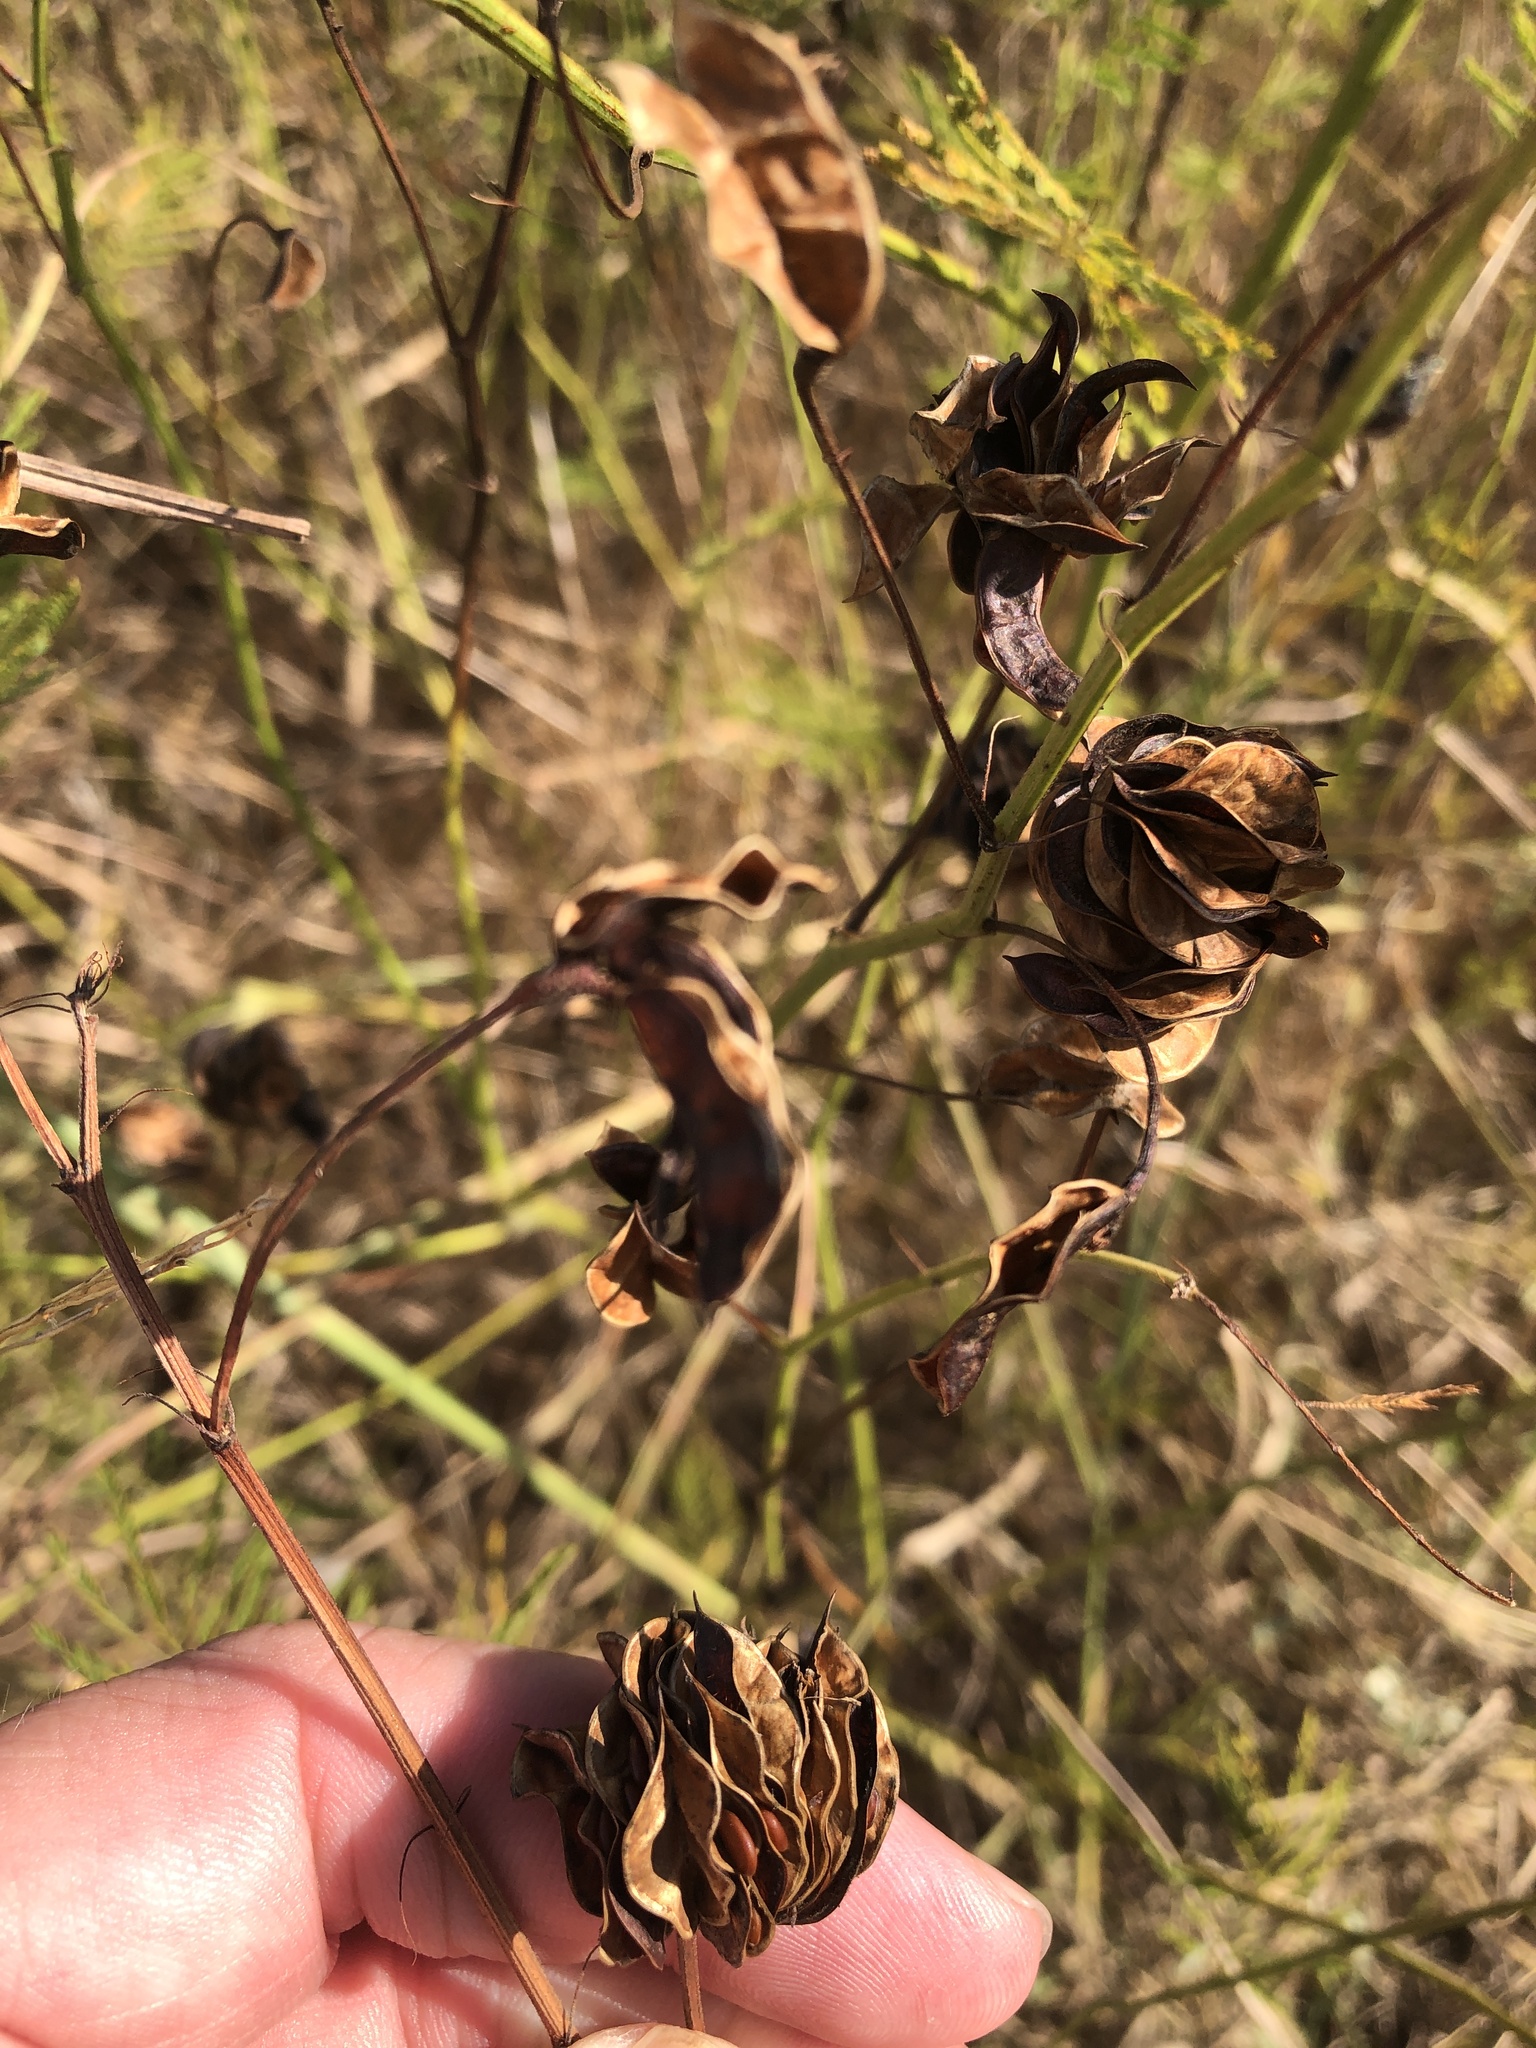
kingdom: Plantae
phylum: Tracheophyta
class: Magnoliopsida
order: Fabales
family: Fabaceae
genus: Desmanthus
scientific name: Desmanthus illinoensis
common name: Illinois bundle-flower
